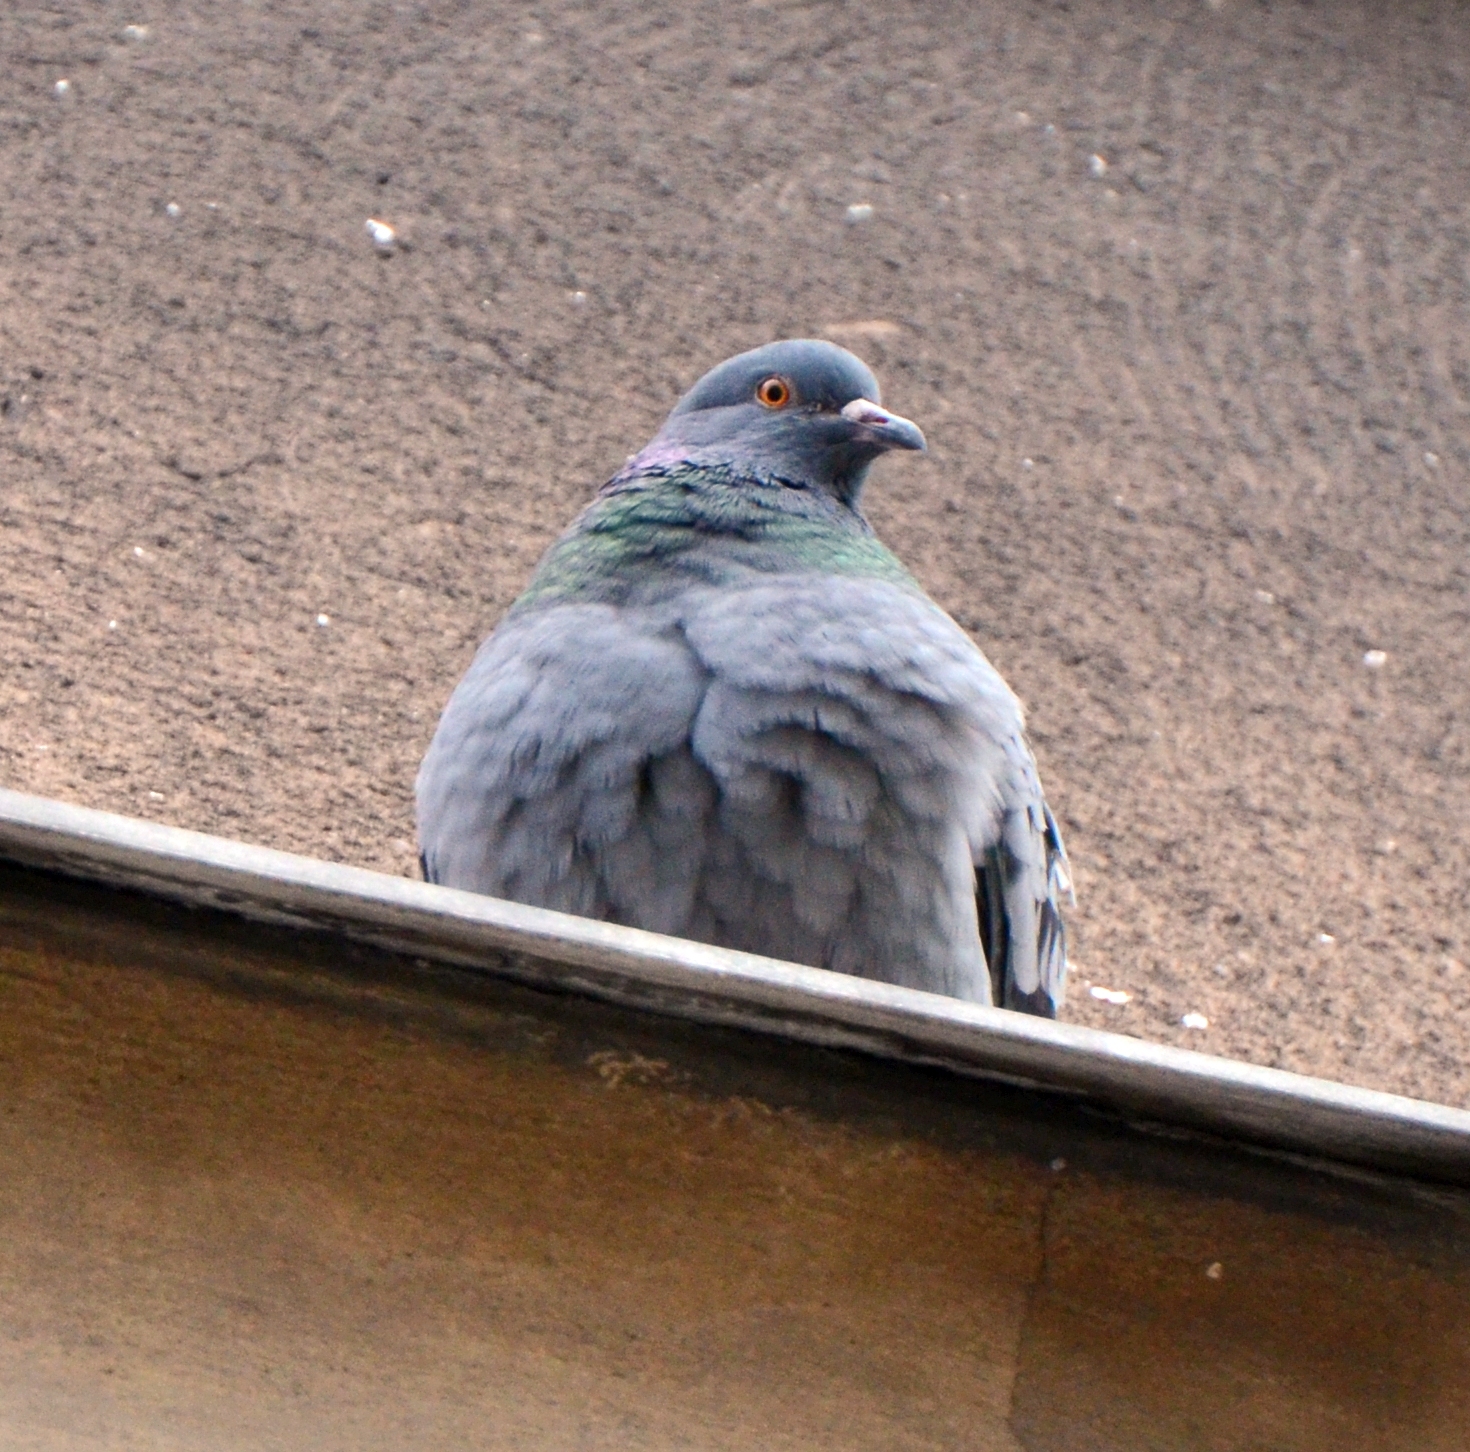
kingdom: Animalia
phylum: Chordata
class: Aves
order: Columbiformes
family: Columbidae
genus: Columba
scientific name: Columba livia
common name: Rock pigeon
